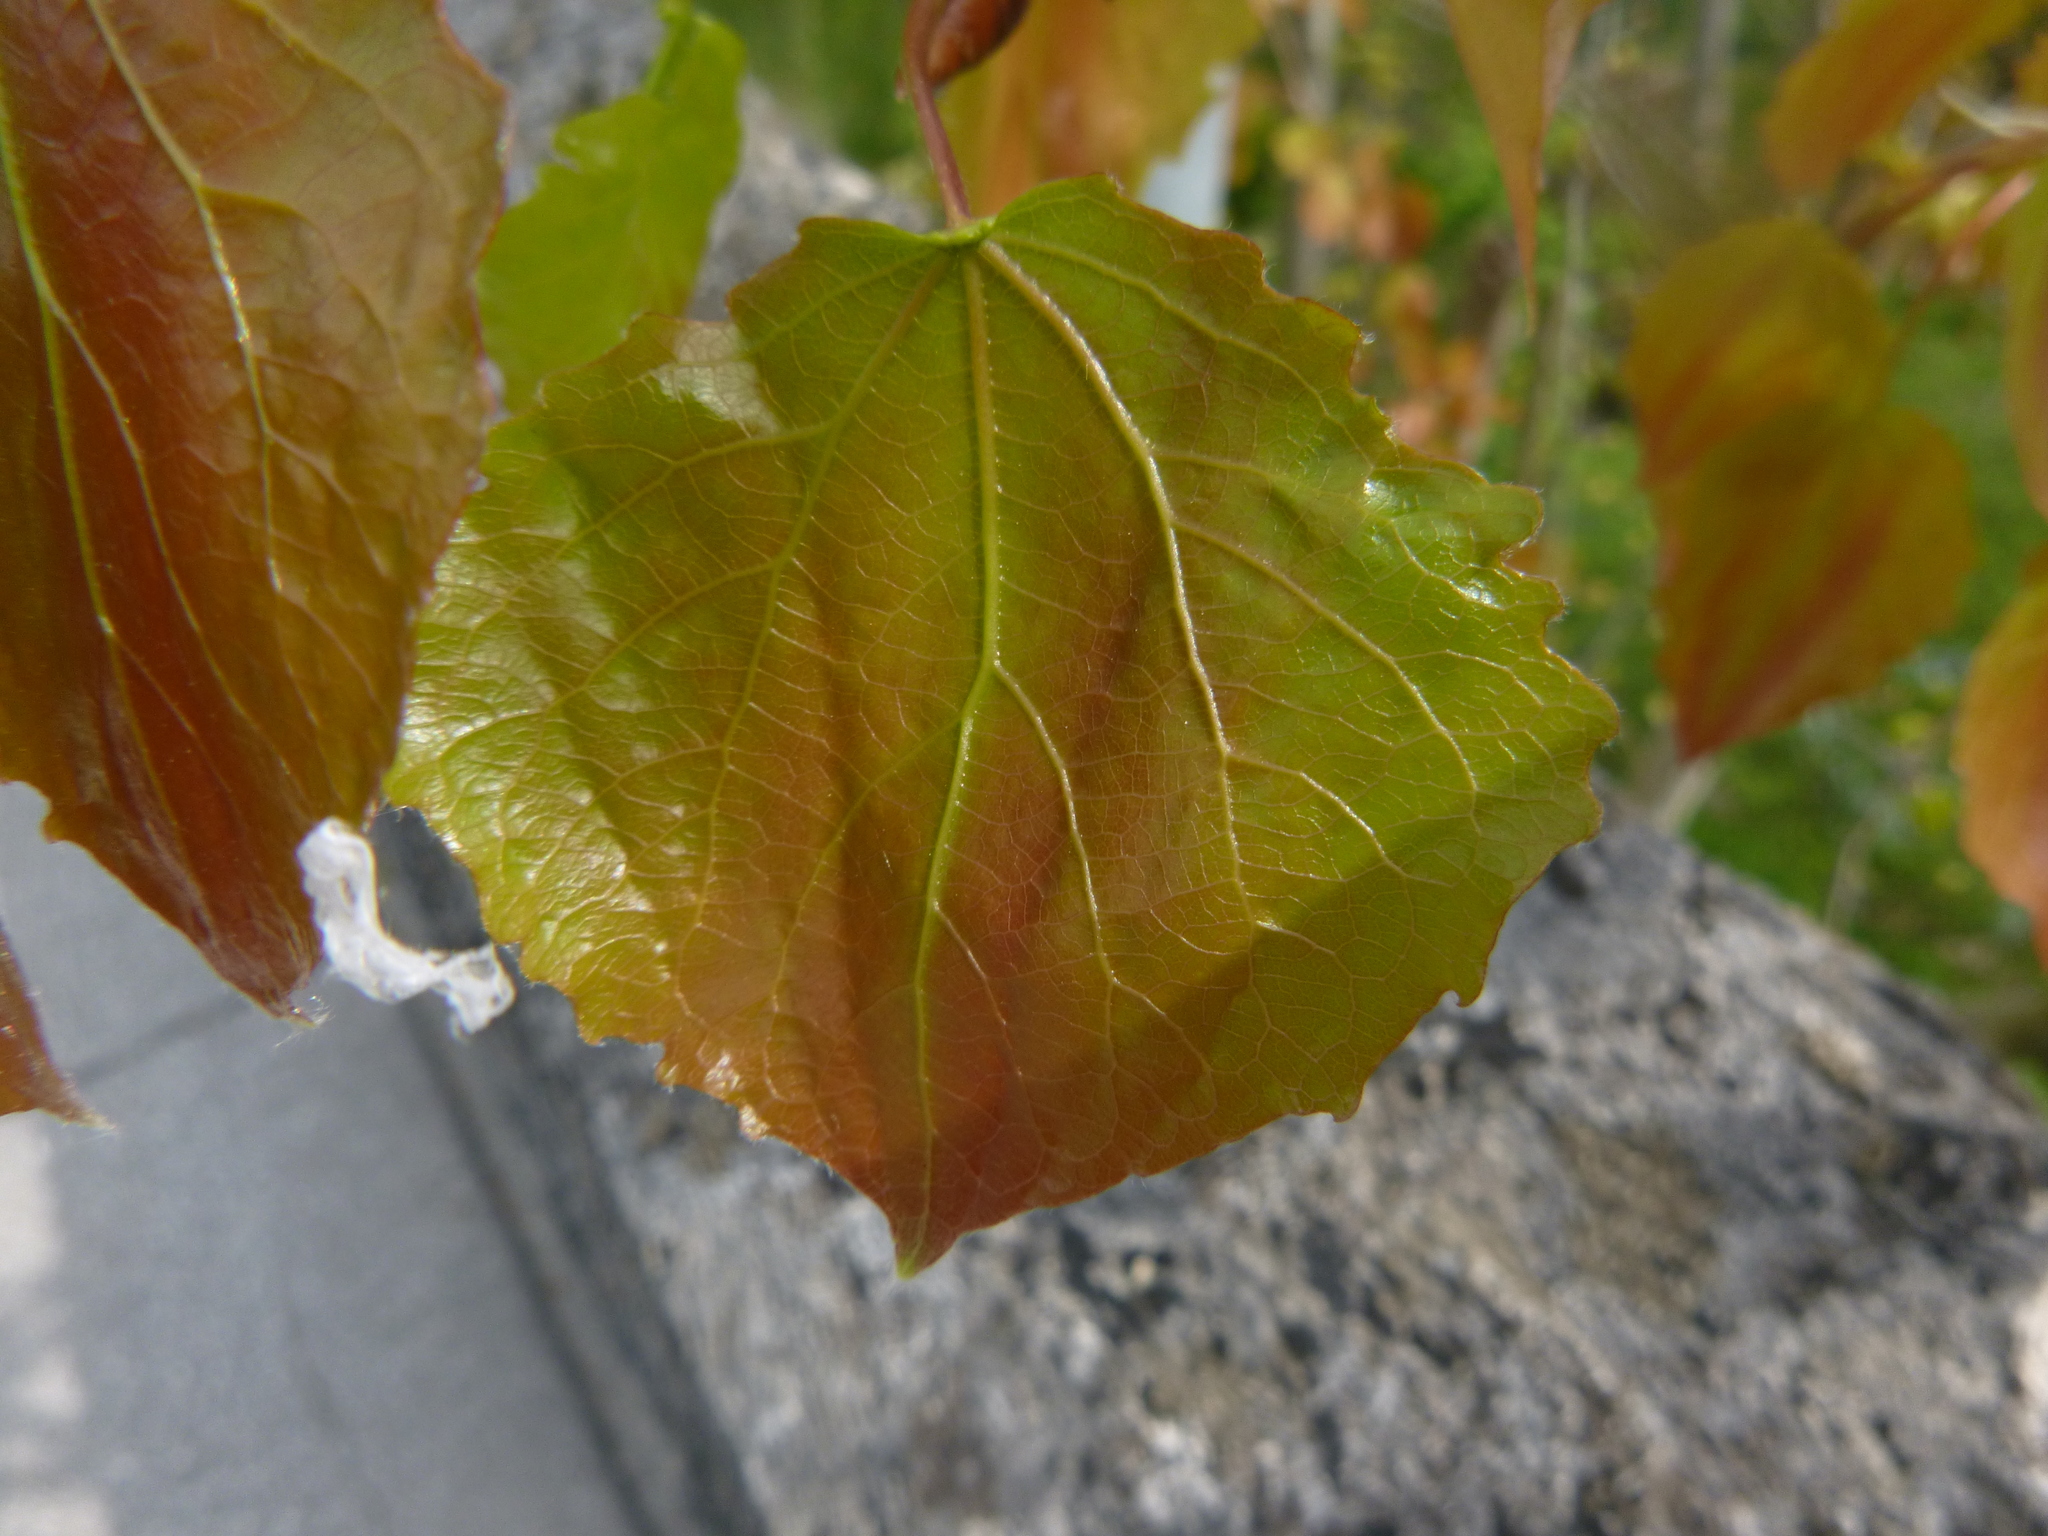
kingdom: Plantae
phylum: Tracheophyta
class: Magnoliopsida
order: Malpighiales
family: Salicaceae
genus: Populus
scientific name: Populus tremula
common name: European aspen
